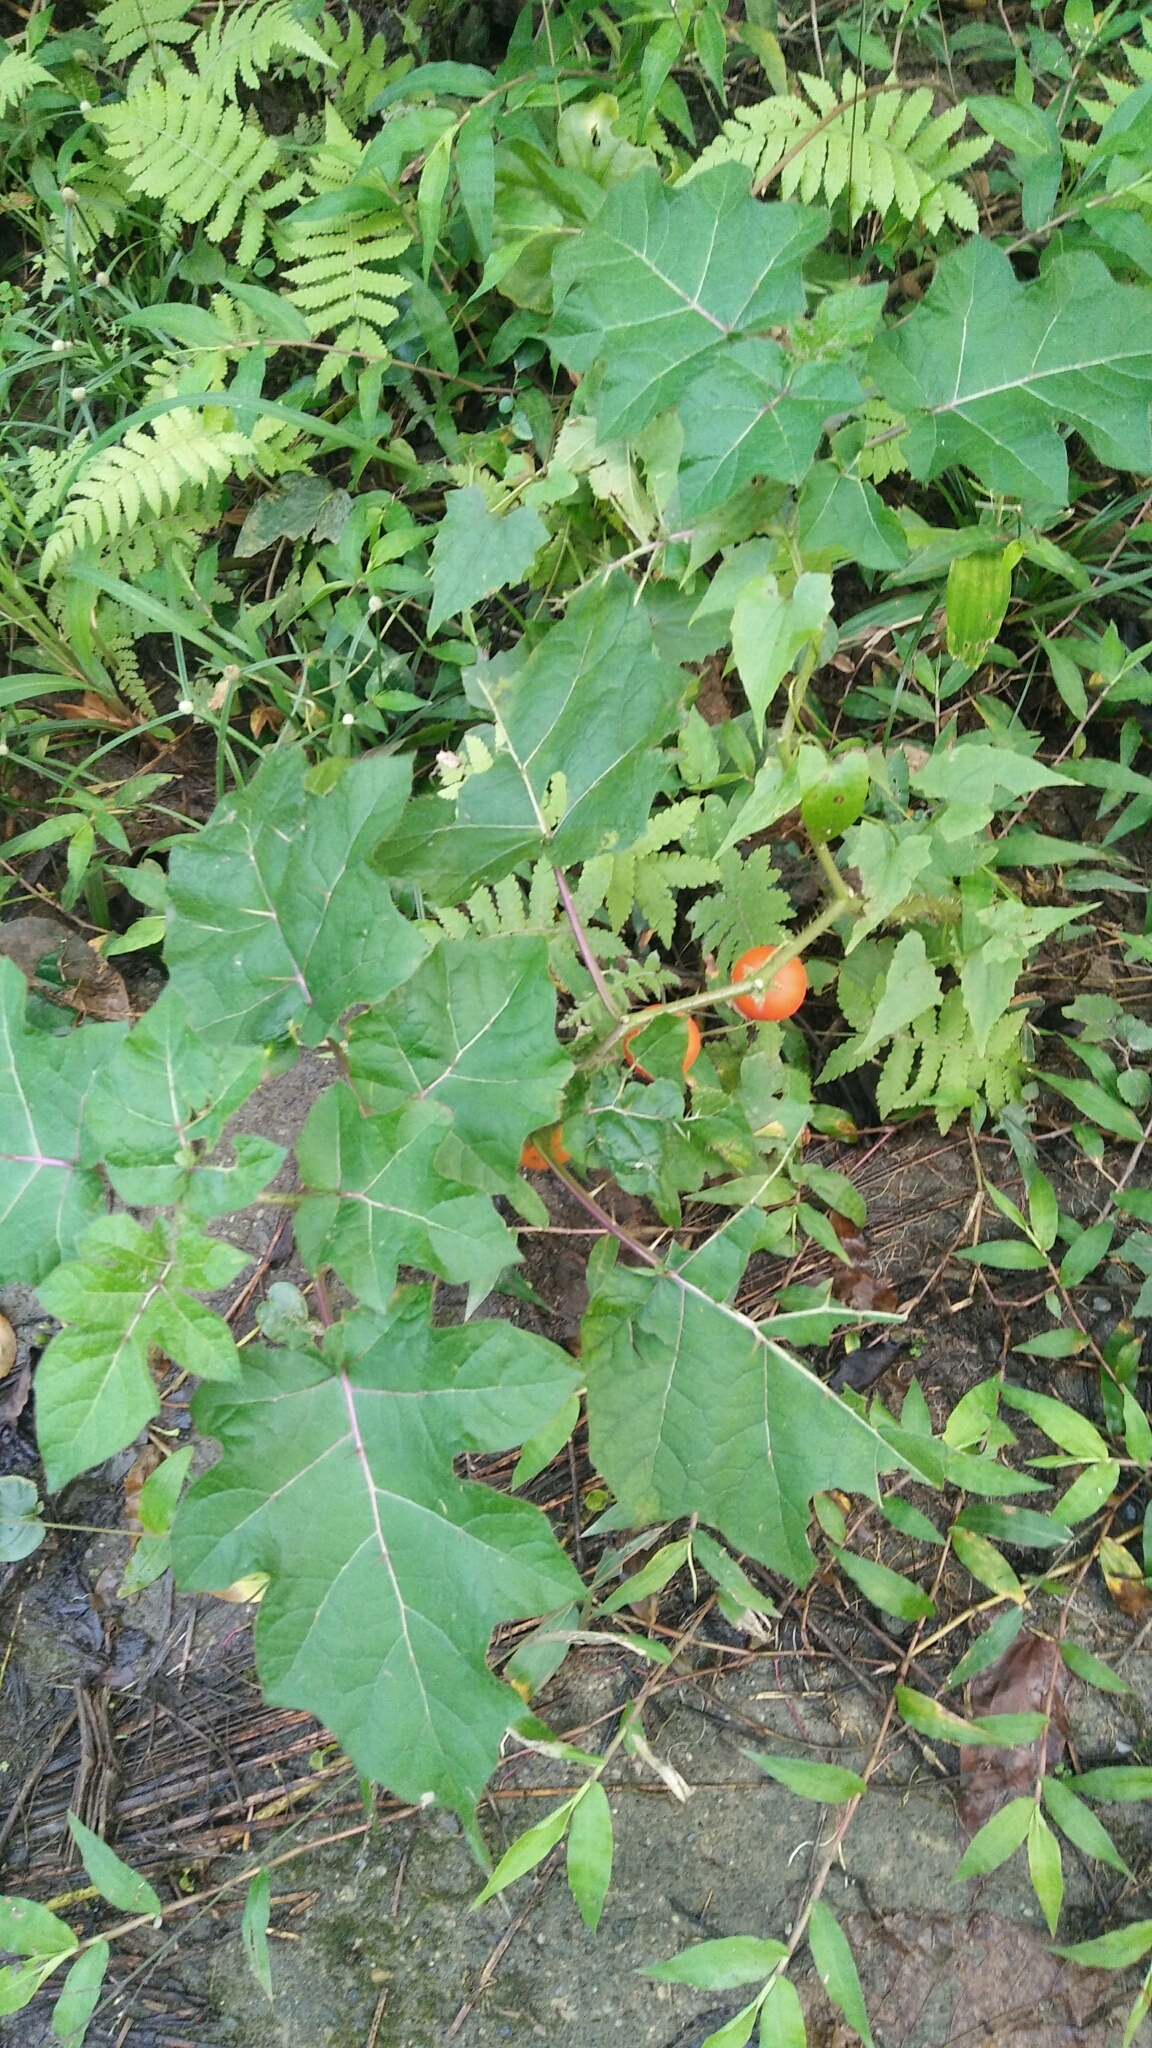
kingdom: Plantae
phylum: Tracheophyta
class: Magnoliopsida
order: Solanales
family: Solanaceae
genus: Solanum
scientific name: Solanum capsicoides
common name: Cockroach berry
